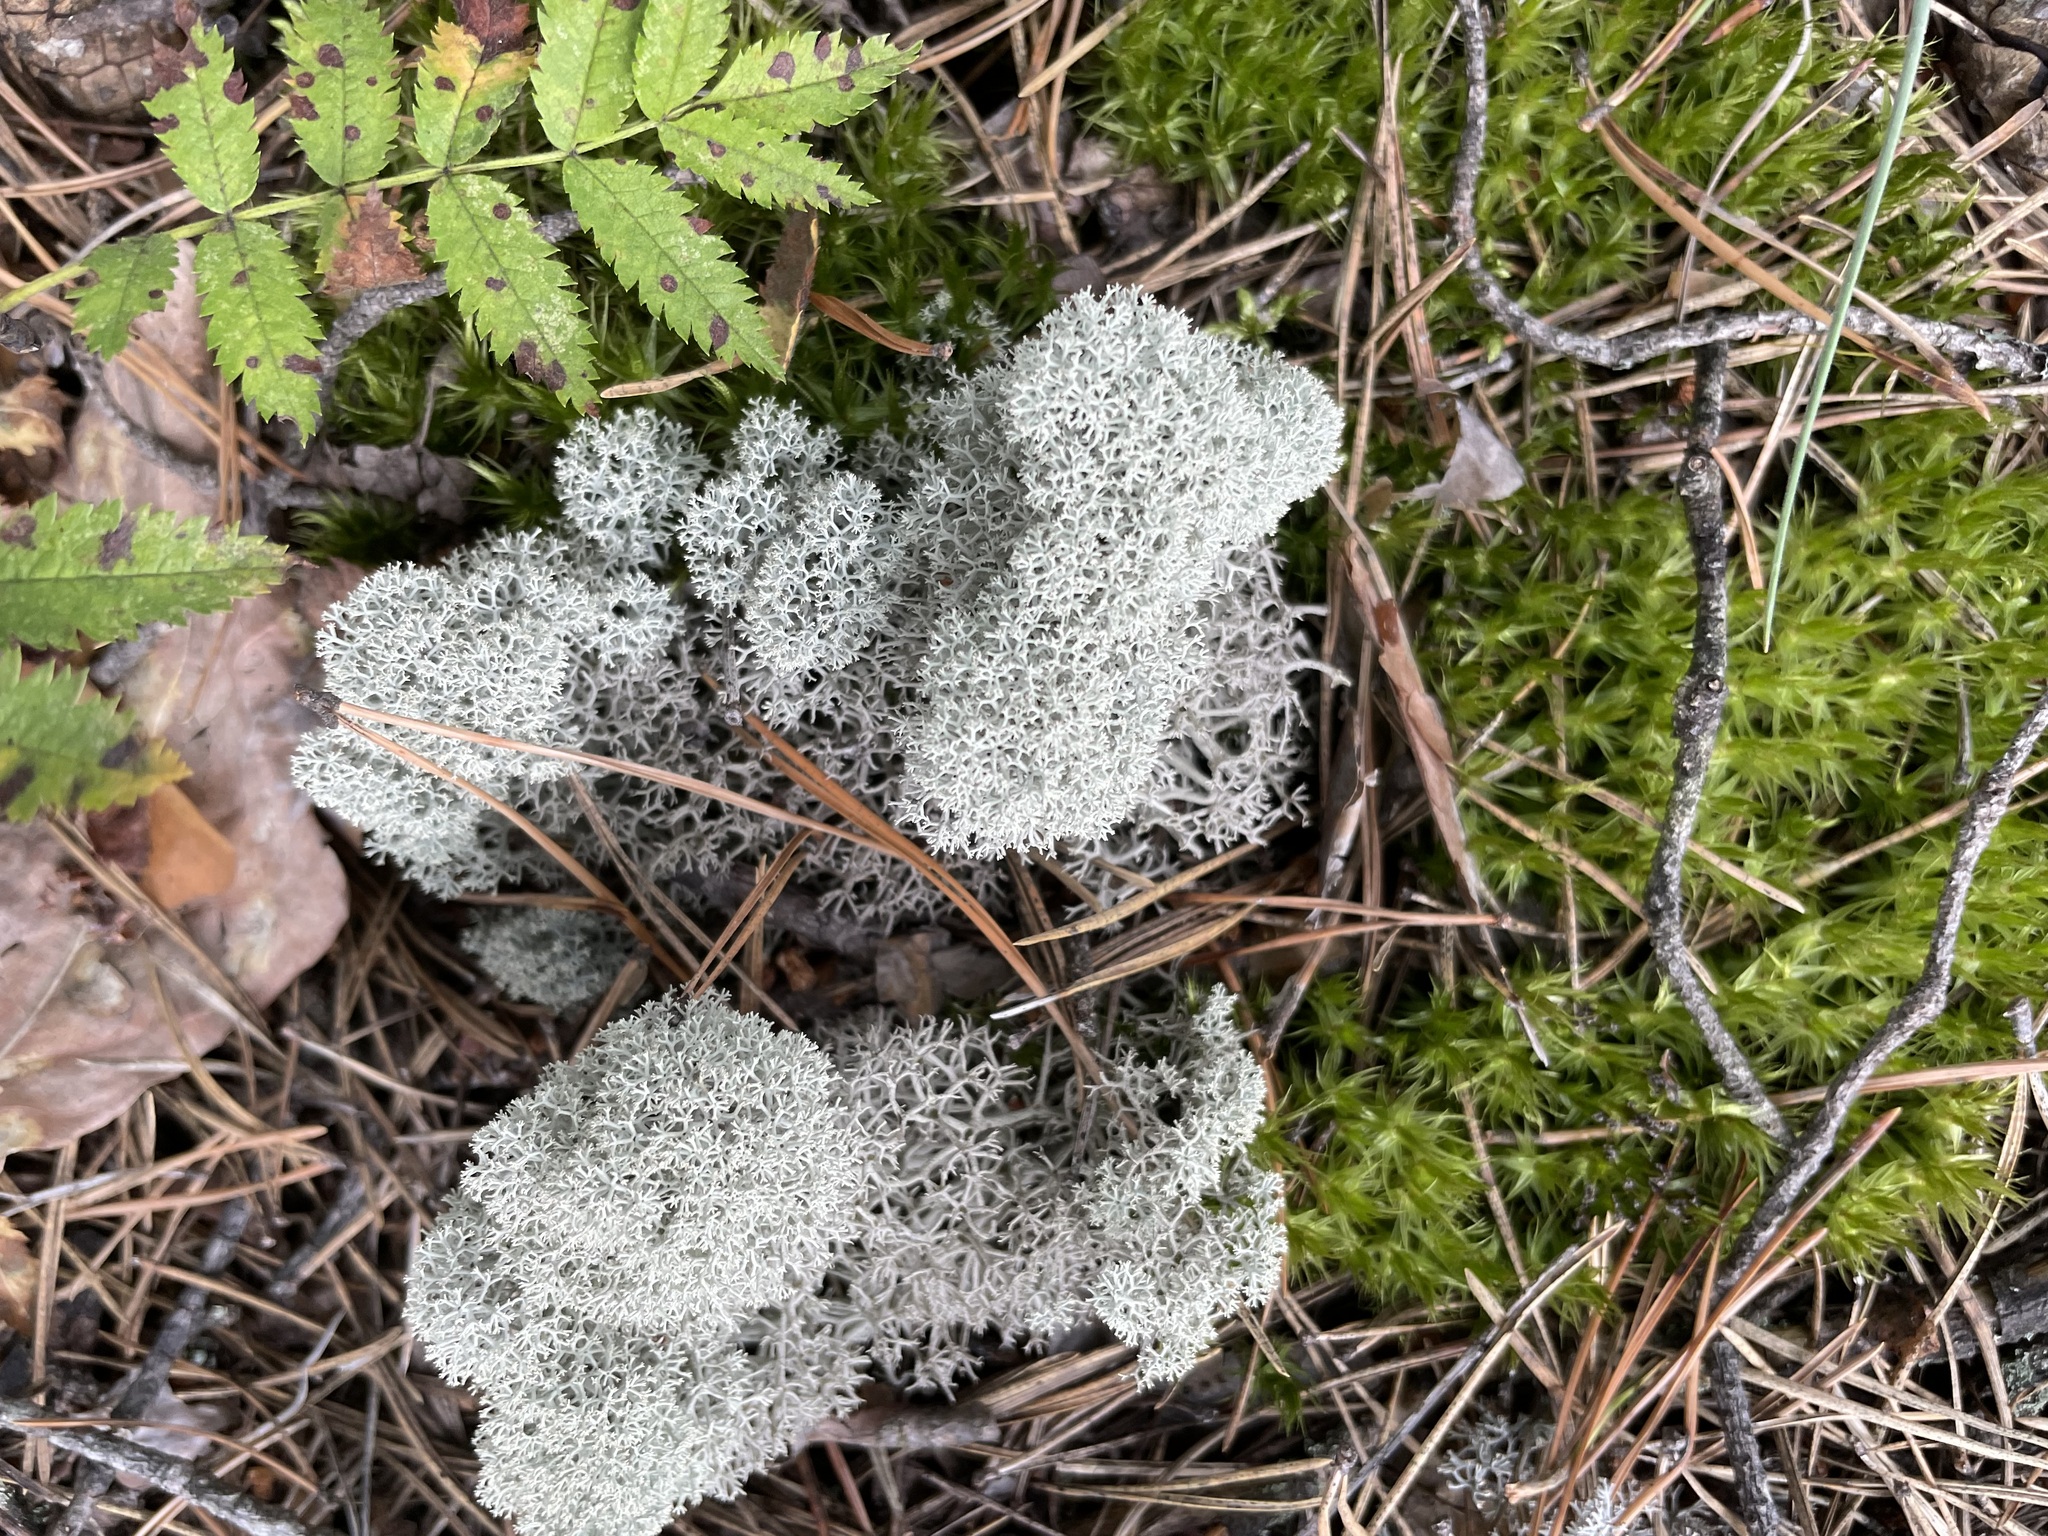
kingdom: Fungi
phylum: Ascomycota
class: Lecanoromycetes
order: Lecanorales
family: Cladoniaceae
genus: Cladonia
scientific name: Cladonia stellaris
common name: Star-tipped reindeer lichen
